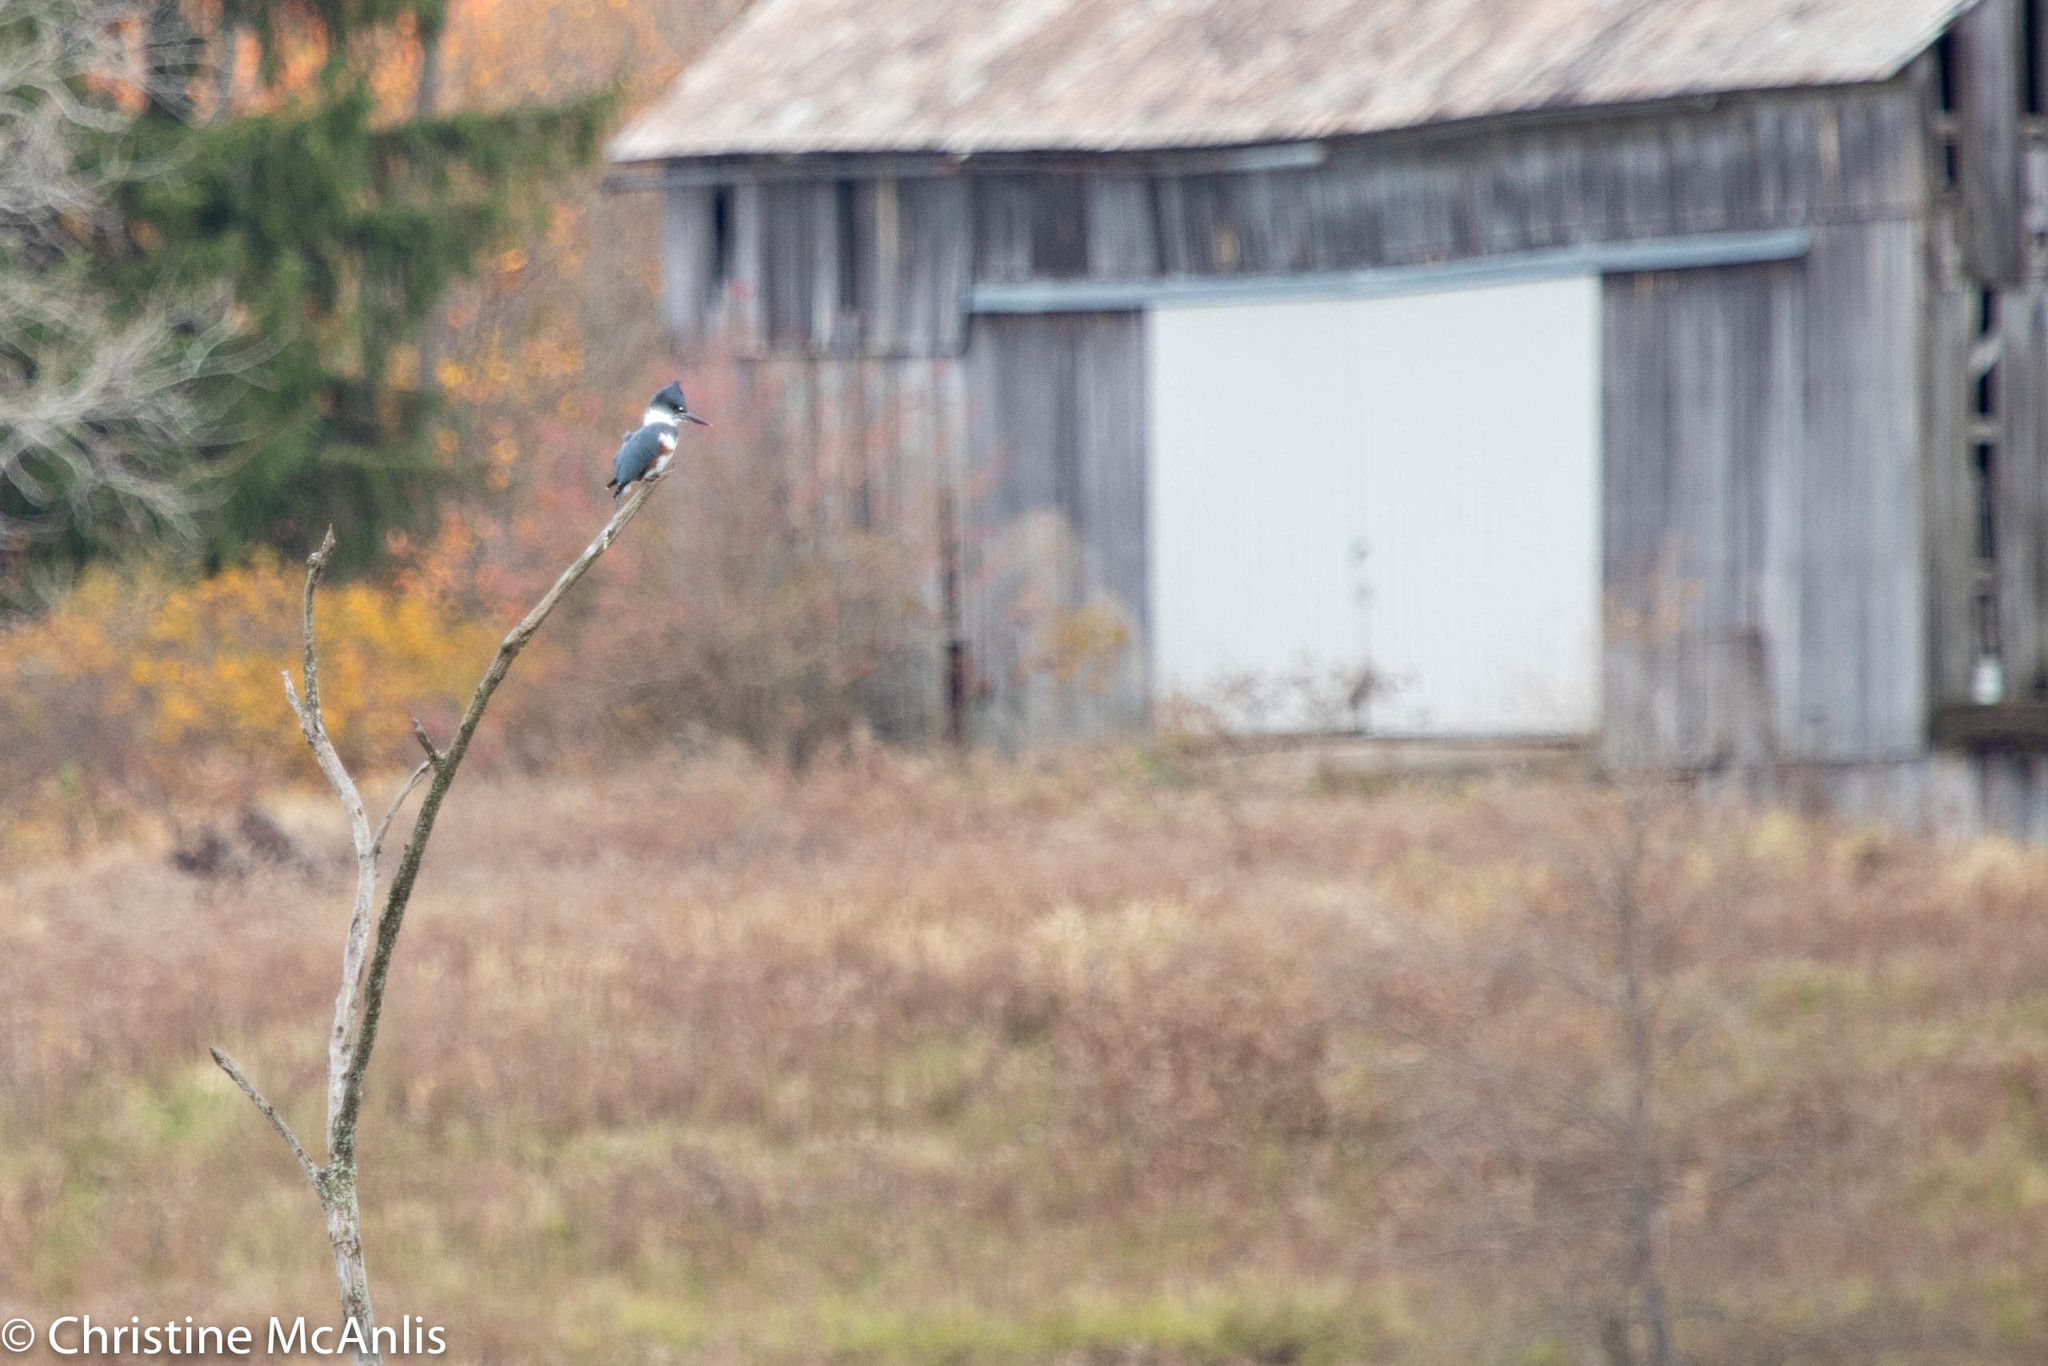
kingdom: Animalia
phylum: Chordata
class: Aves
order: Coraciiformes
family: Alcedinidae
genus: Megaceryle
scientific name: Megaceryle alcyon
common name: Belted kingfisher
